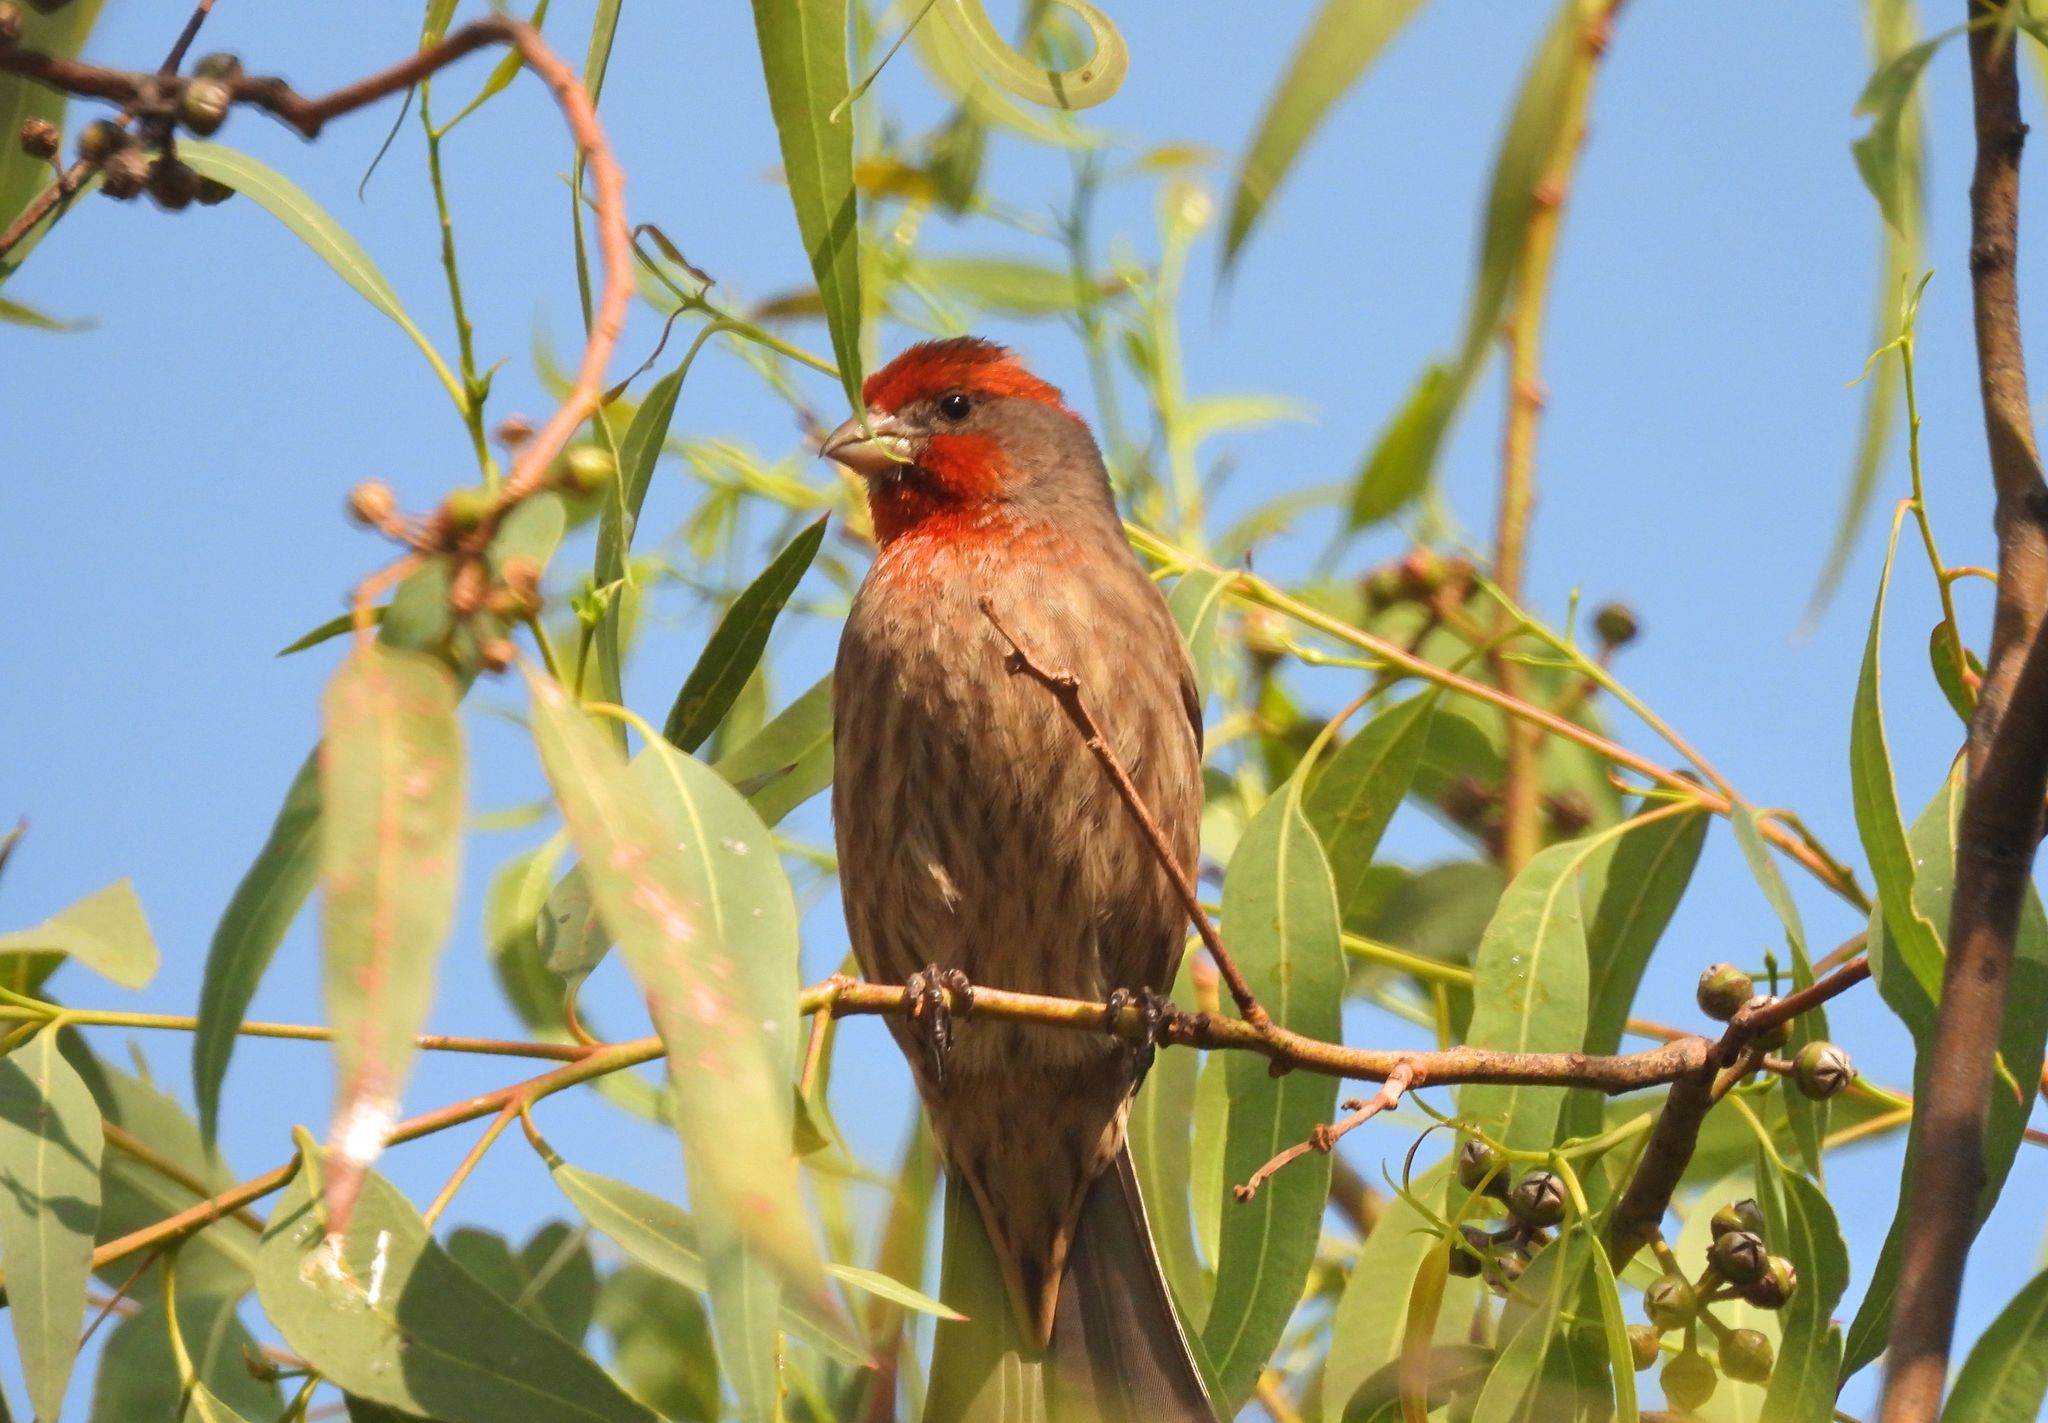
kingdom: Animalia
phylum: Chordata
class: Aves
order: Passeriformes
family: Fringillidae
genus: Haemorhous
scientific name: Haemorhous mexicanus
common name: House finch
